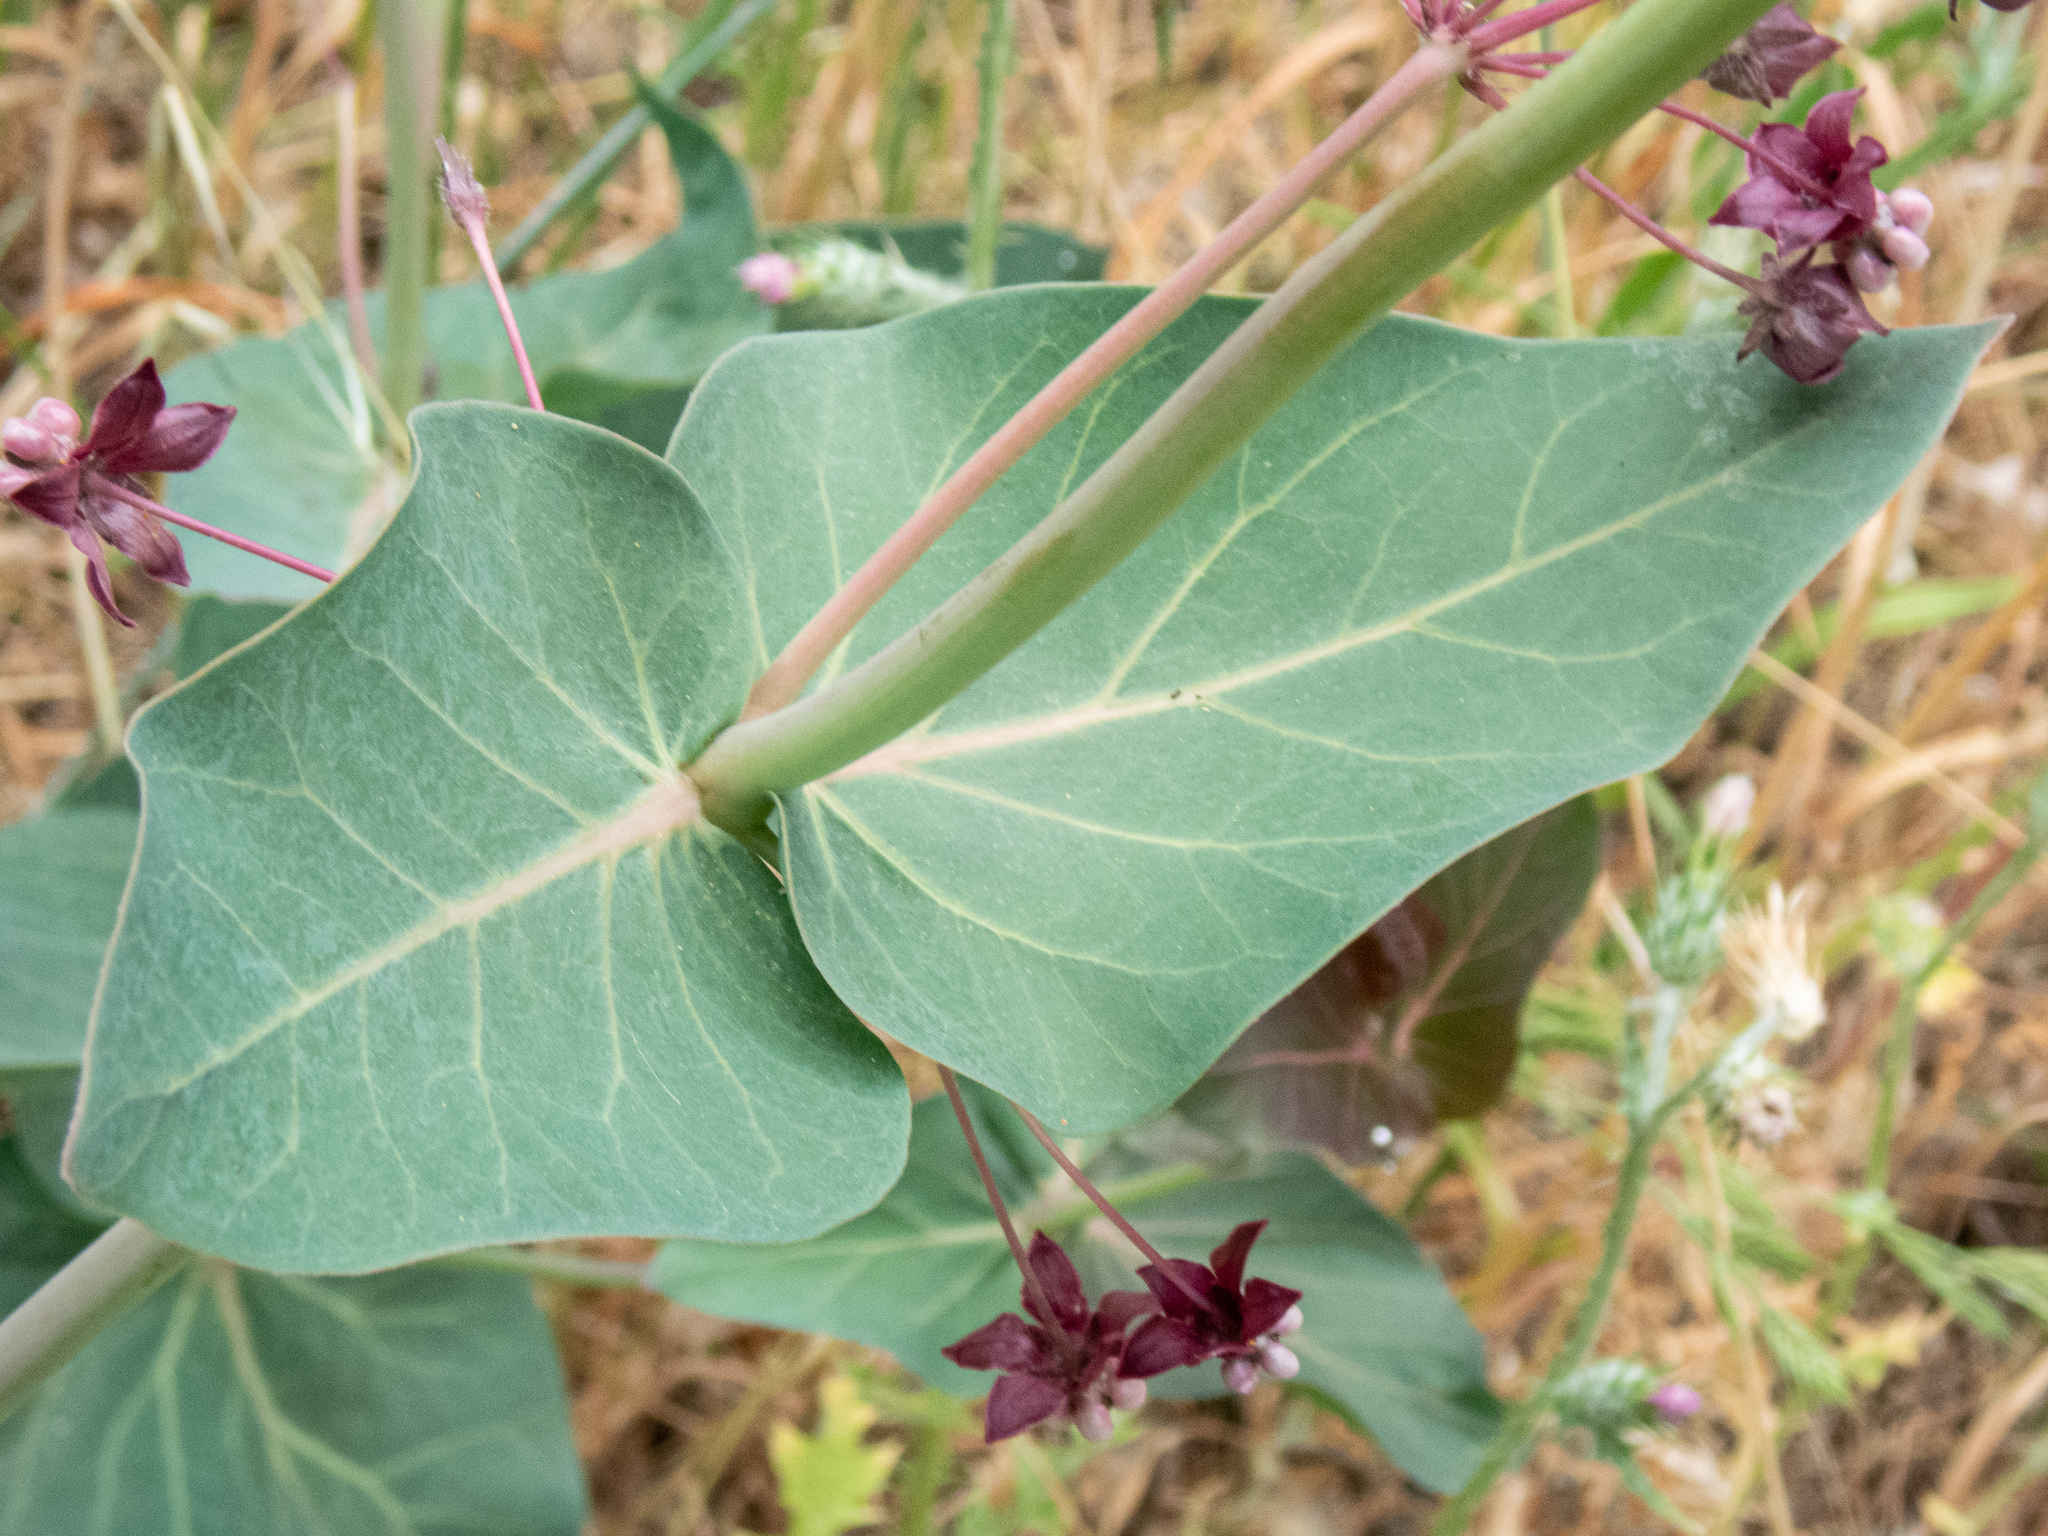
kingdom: Plantae
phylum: Tracheophyta
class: Magnoliopsida
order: Gentianales
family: Apocynaceae
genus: Asclepias
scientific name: Asclepias cordifolia
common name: Purple milkweed
